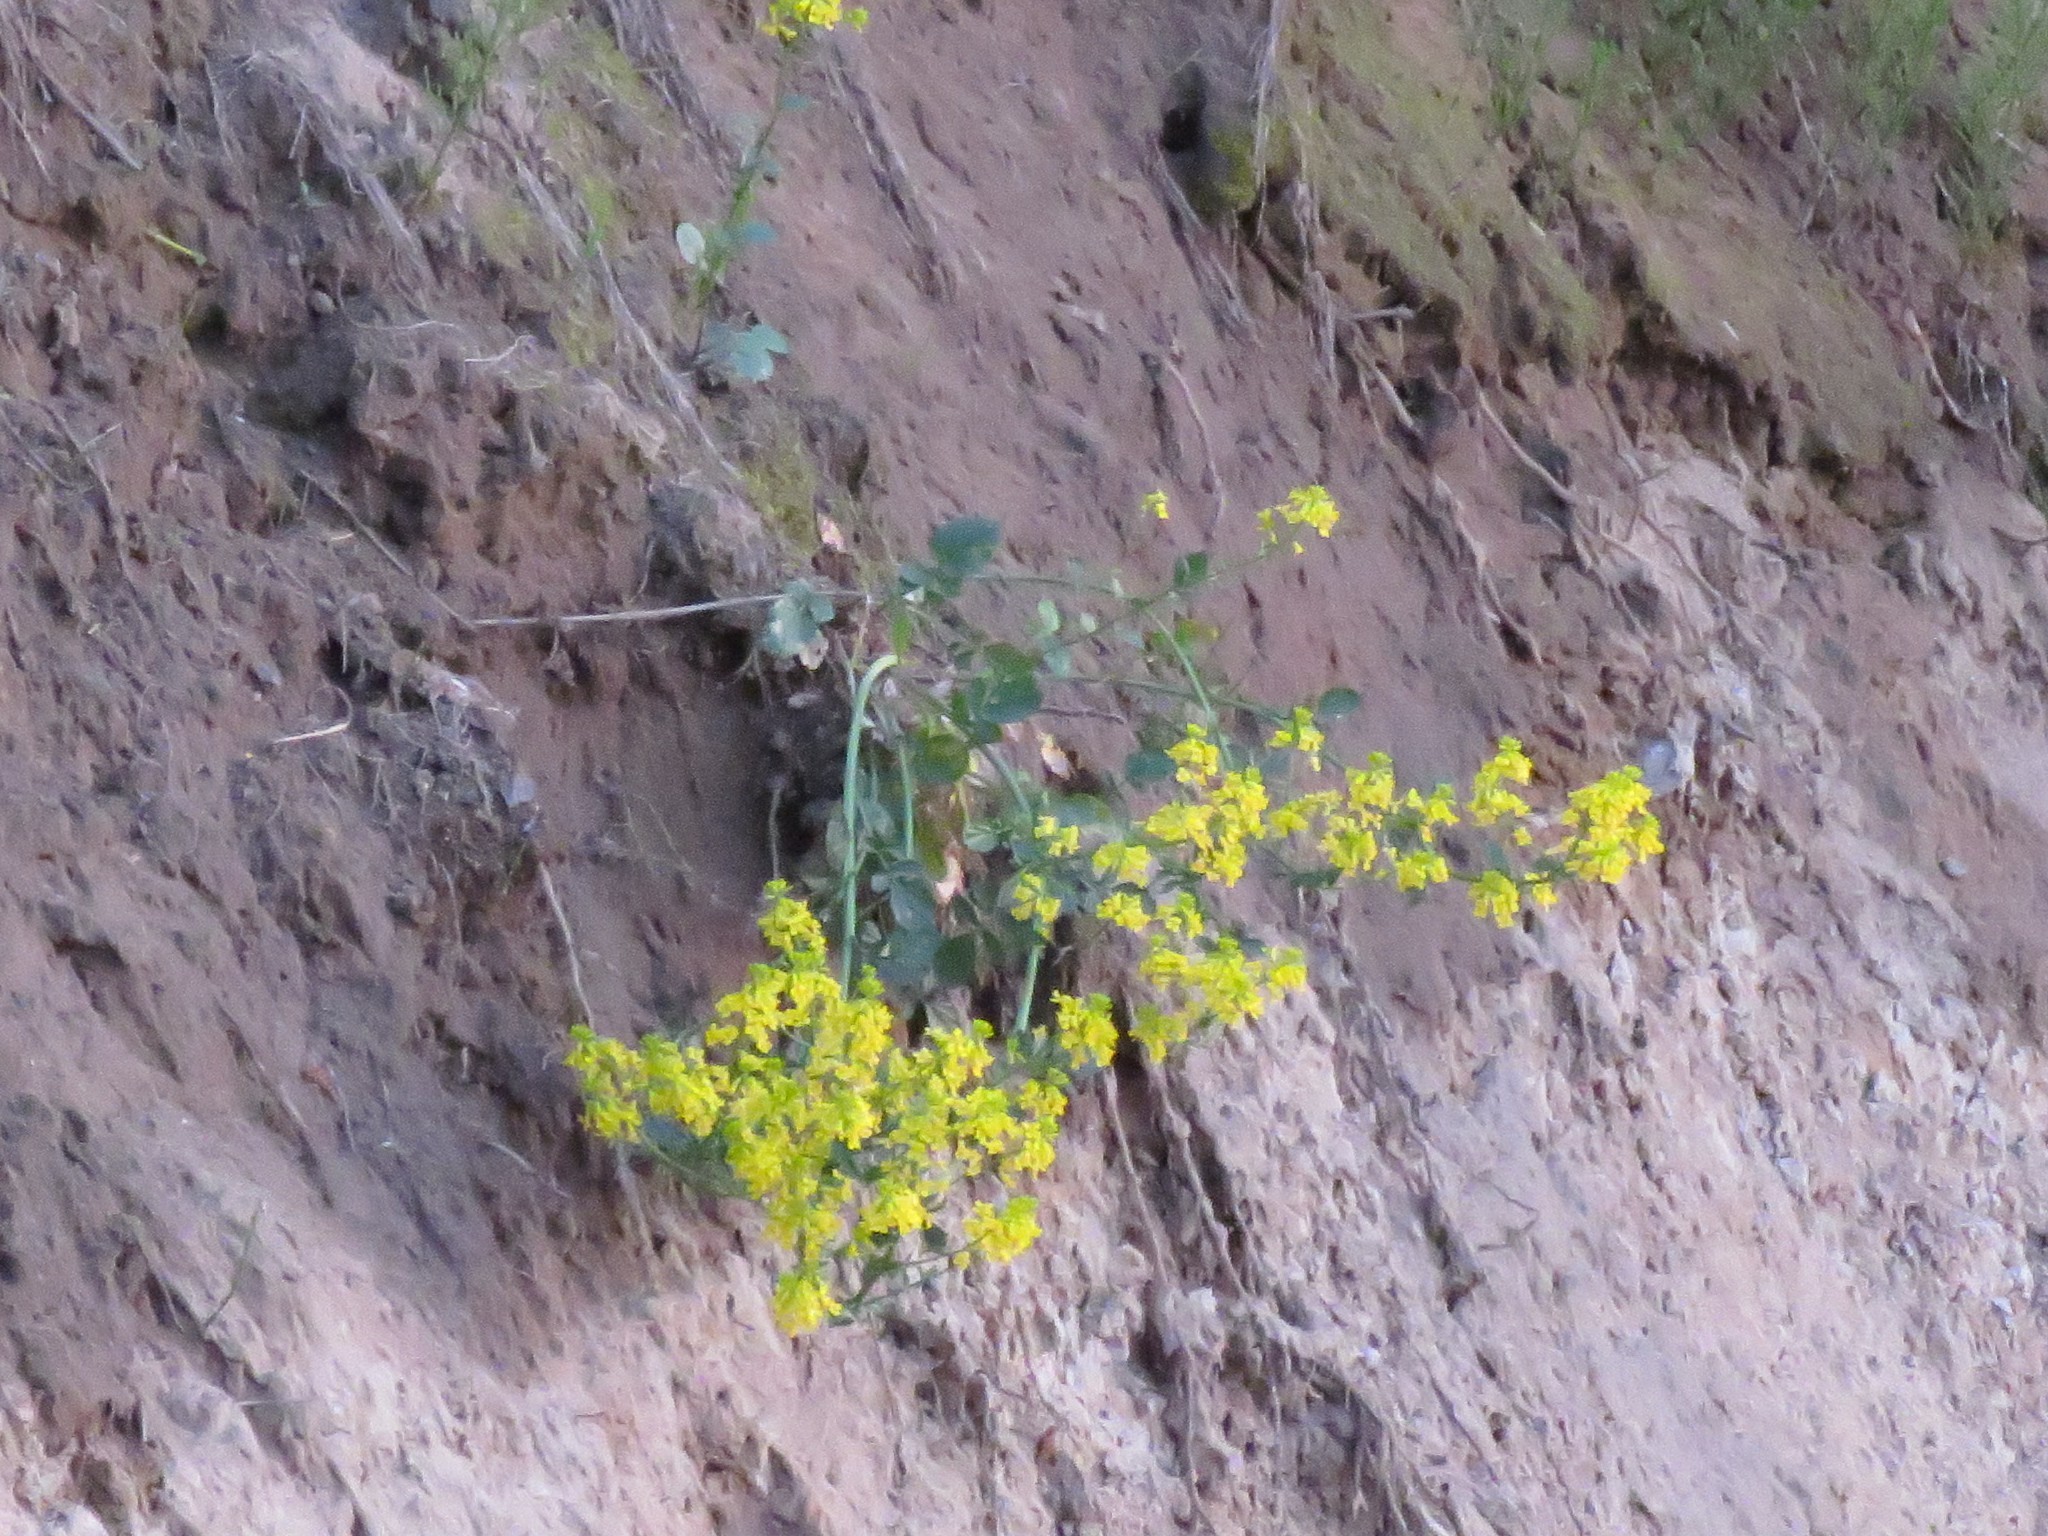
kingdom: Plantae
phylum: Tracheophyta
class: Magnoliopsida
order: Brassicales
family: Brassicaceae
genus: Barbarea
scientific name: Barbarea vulgaris
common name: Cressy-greens
